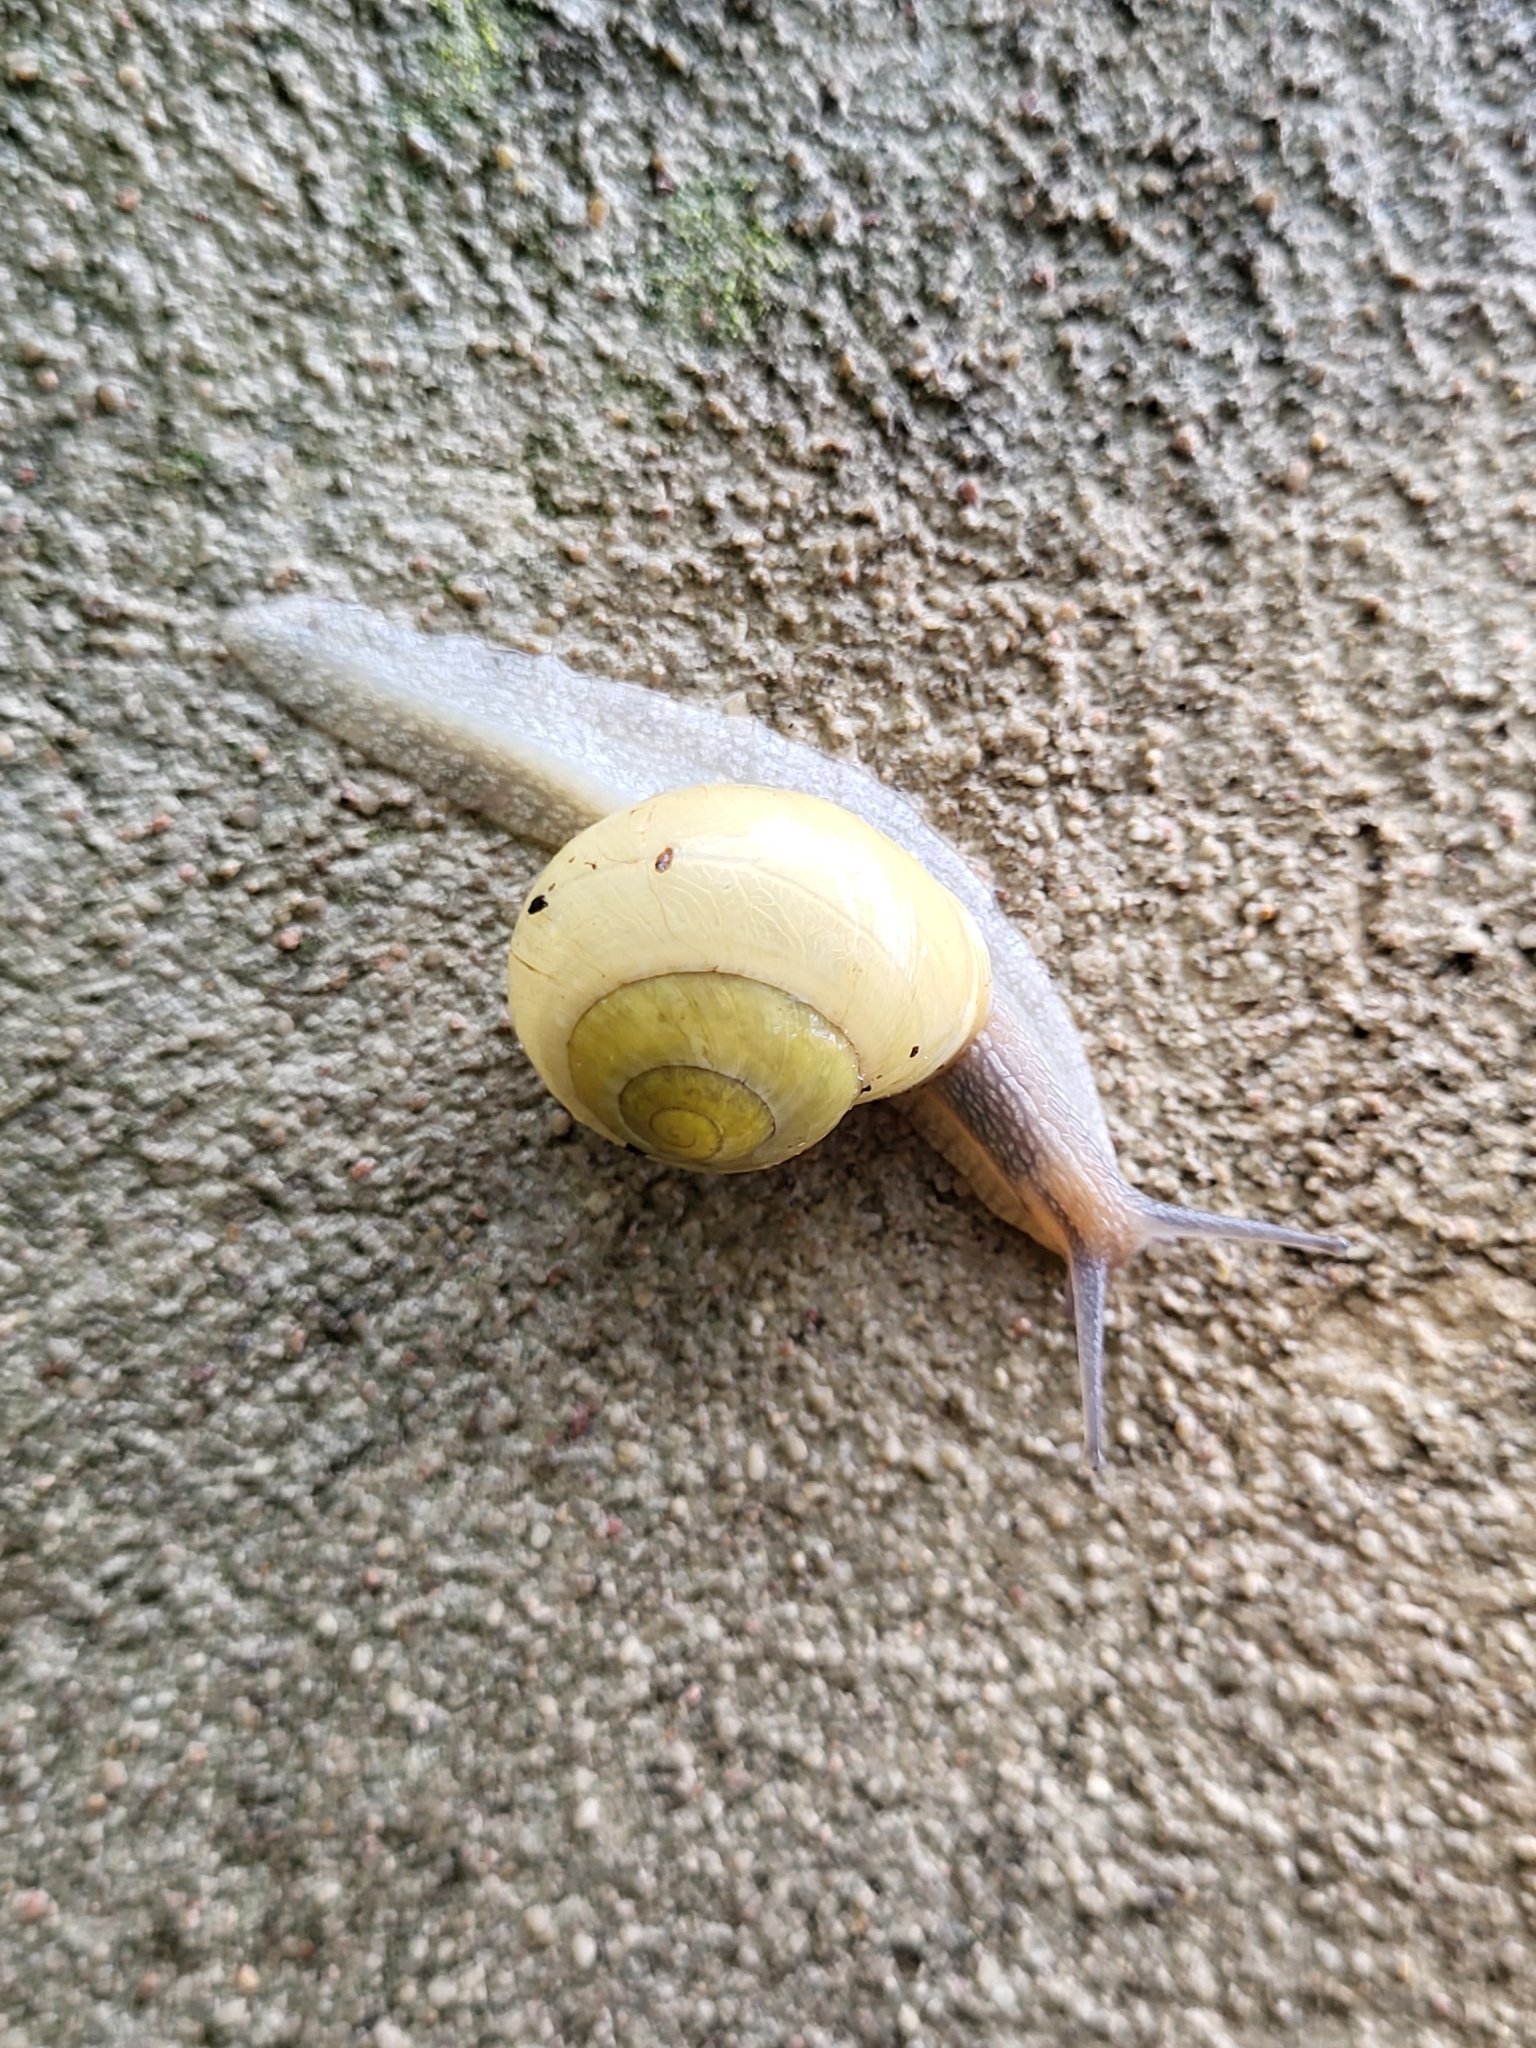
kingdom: Animalia
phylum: Mollusca
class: Gastropoda
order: Stylommatophora
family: Helicidae
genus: Cepaea
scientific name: Cepaea hortensis
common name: White-lip gardensnail
